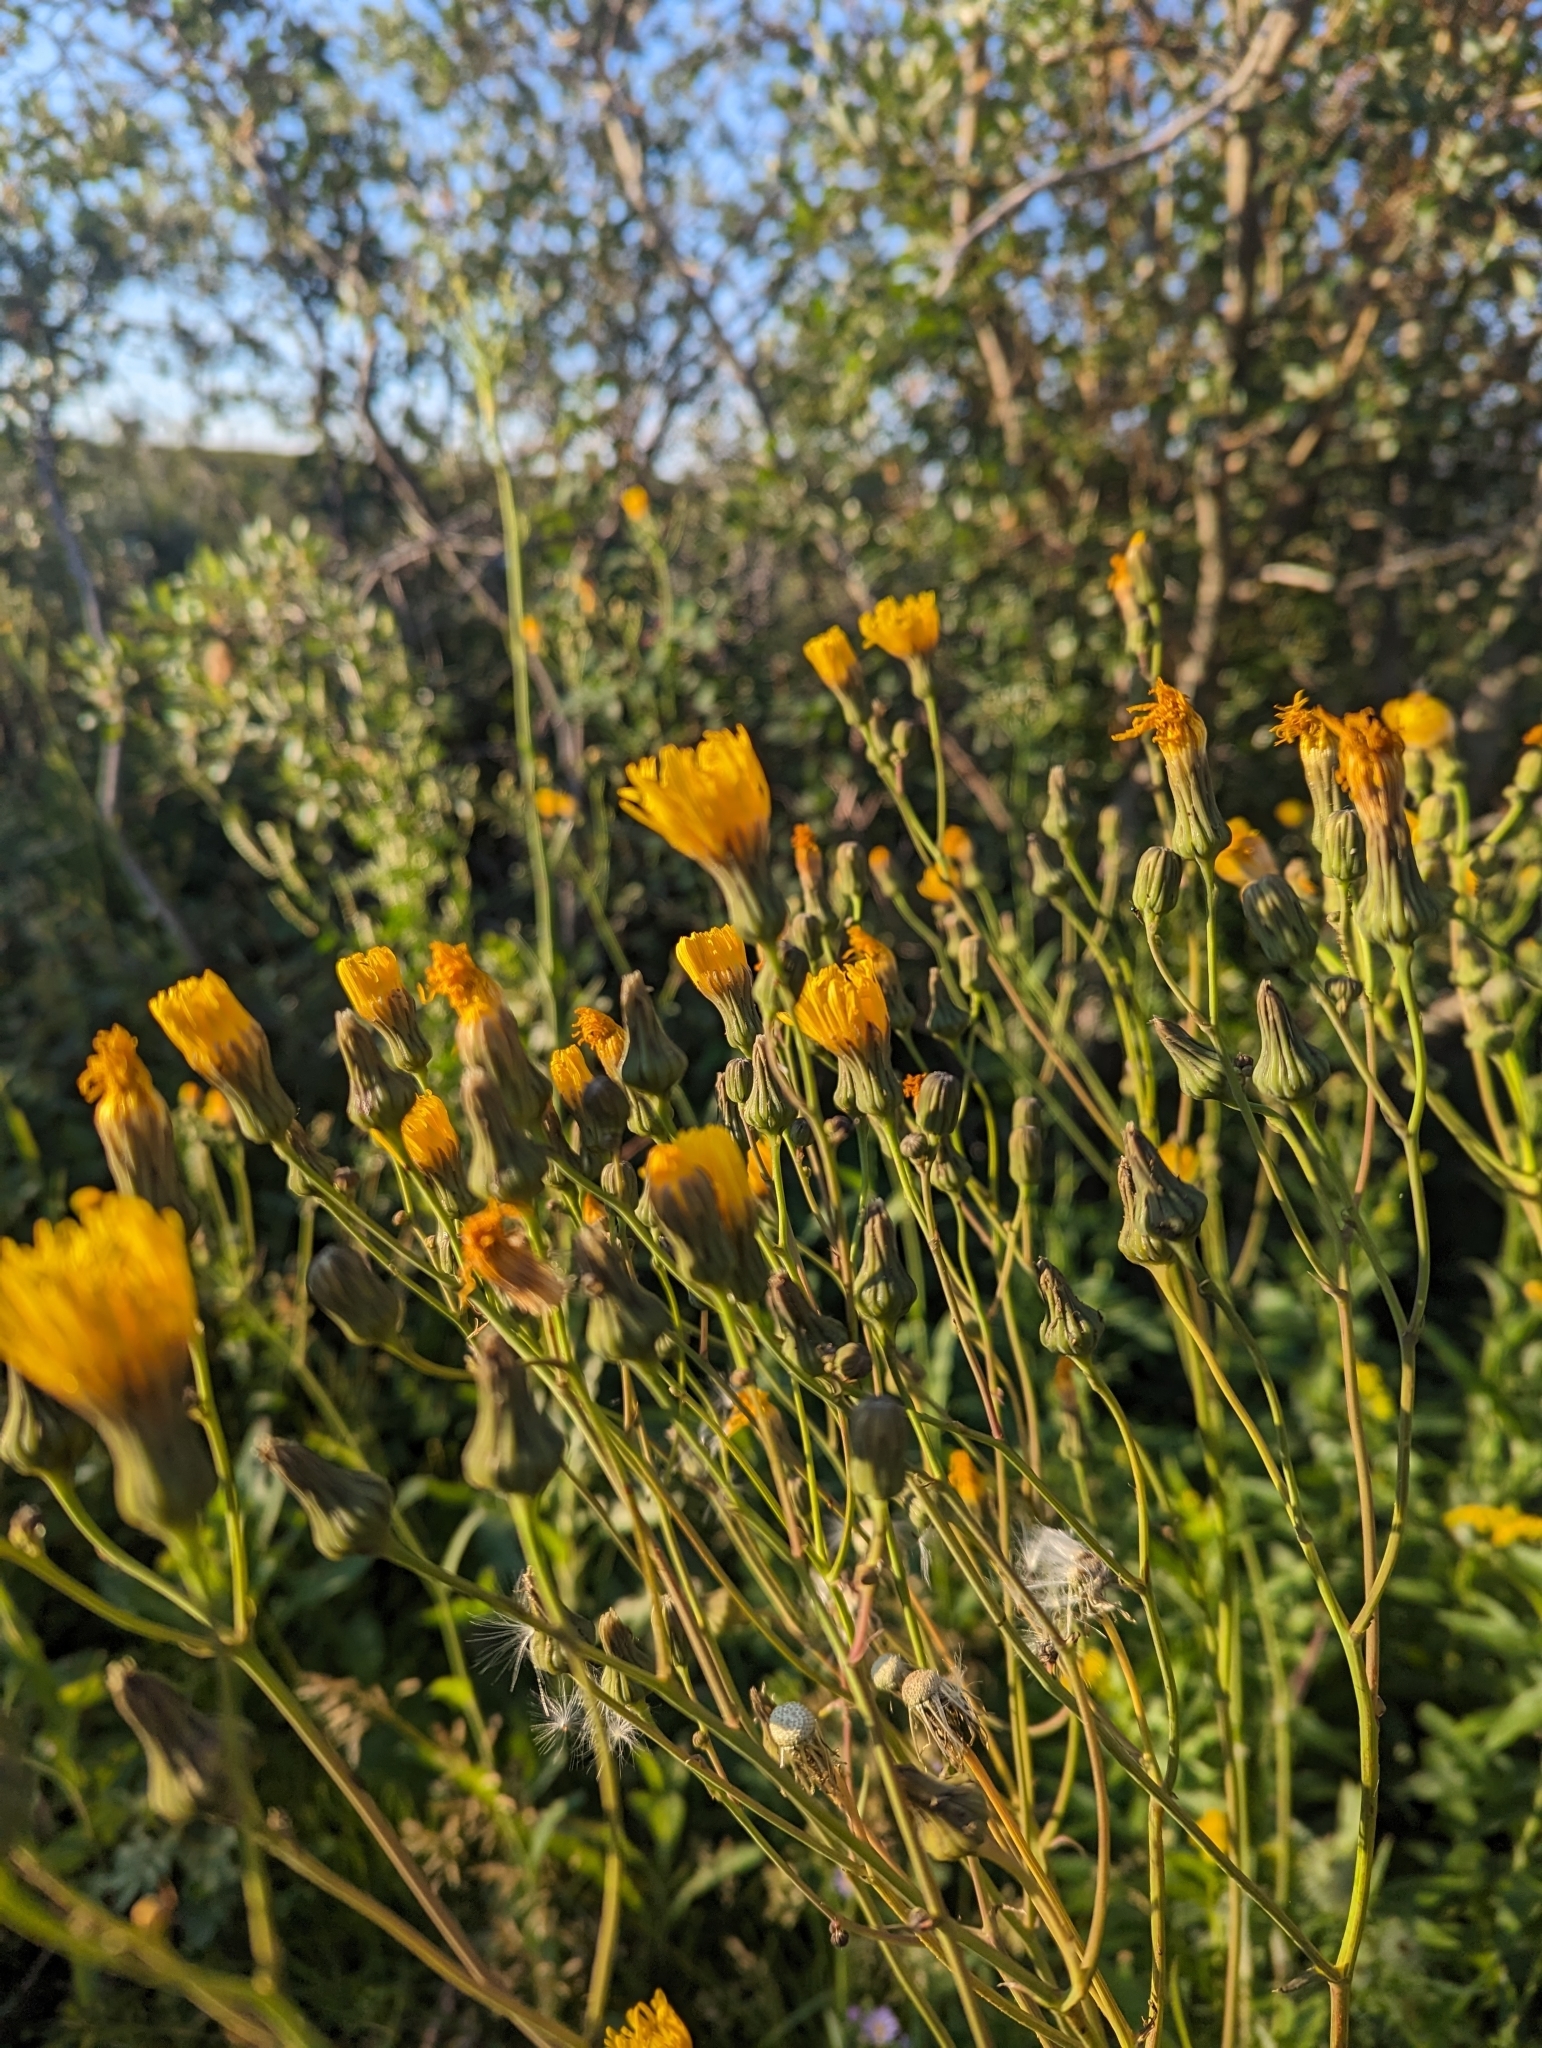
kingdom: Plantae
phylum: Tracheophyta
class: Magnoliopsida
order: Asterales
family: Asteraceae
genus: Sonchus
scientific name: Sonchus arvensis
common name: Perennial sow-thistle
